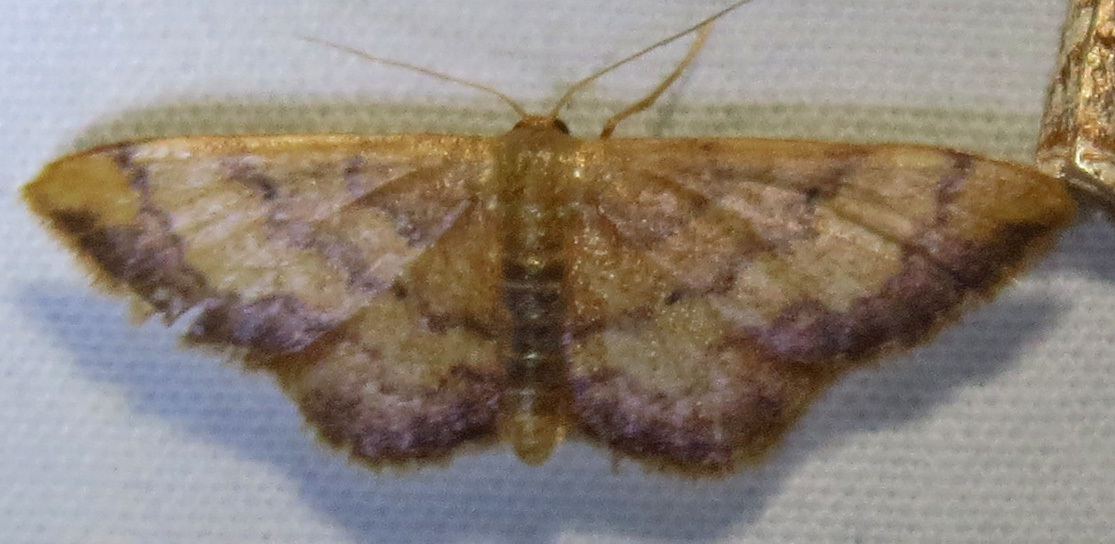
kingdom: Animalia
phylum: Arthropoda
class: Insecta
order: Lepidoptera
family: Geometridae
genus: Idaea
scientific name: Idaea demissaria
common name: Red-bordered wave
